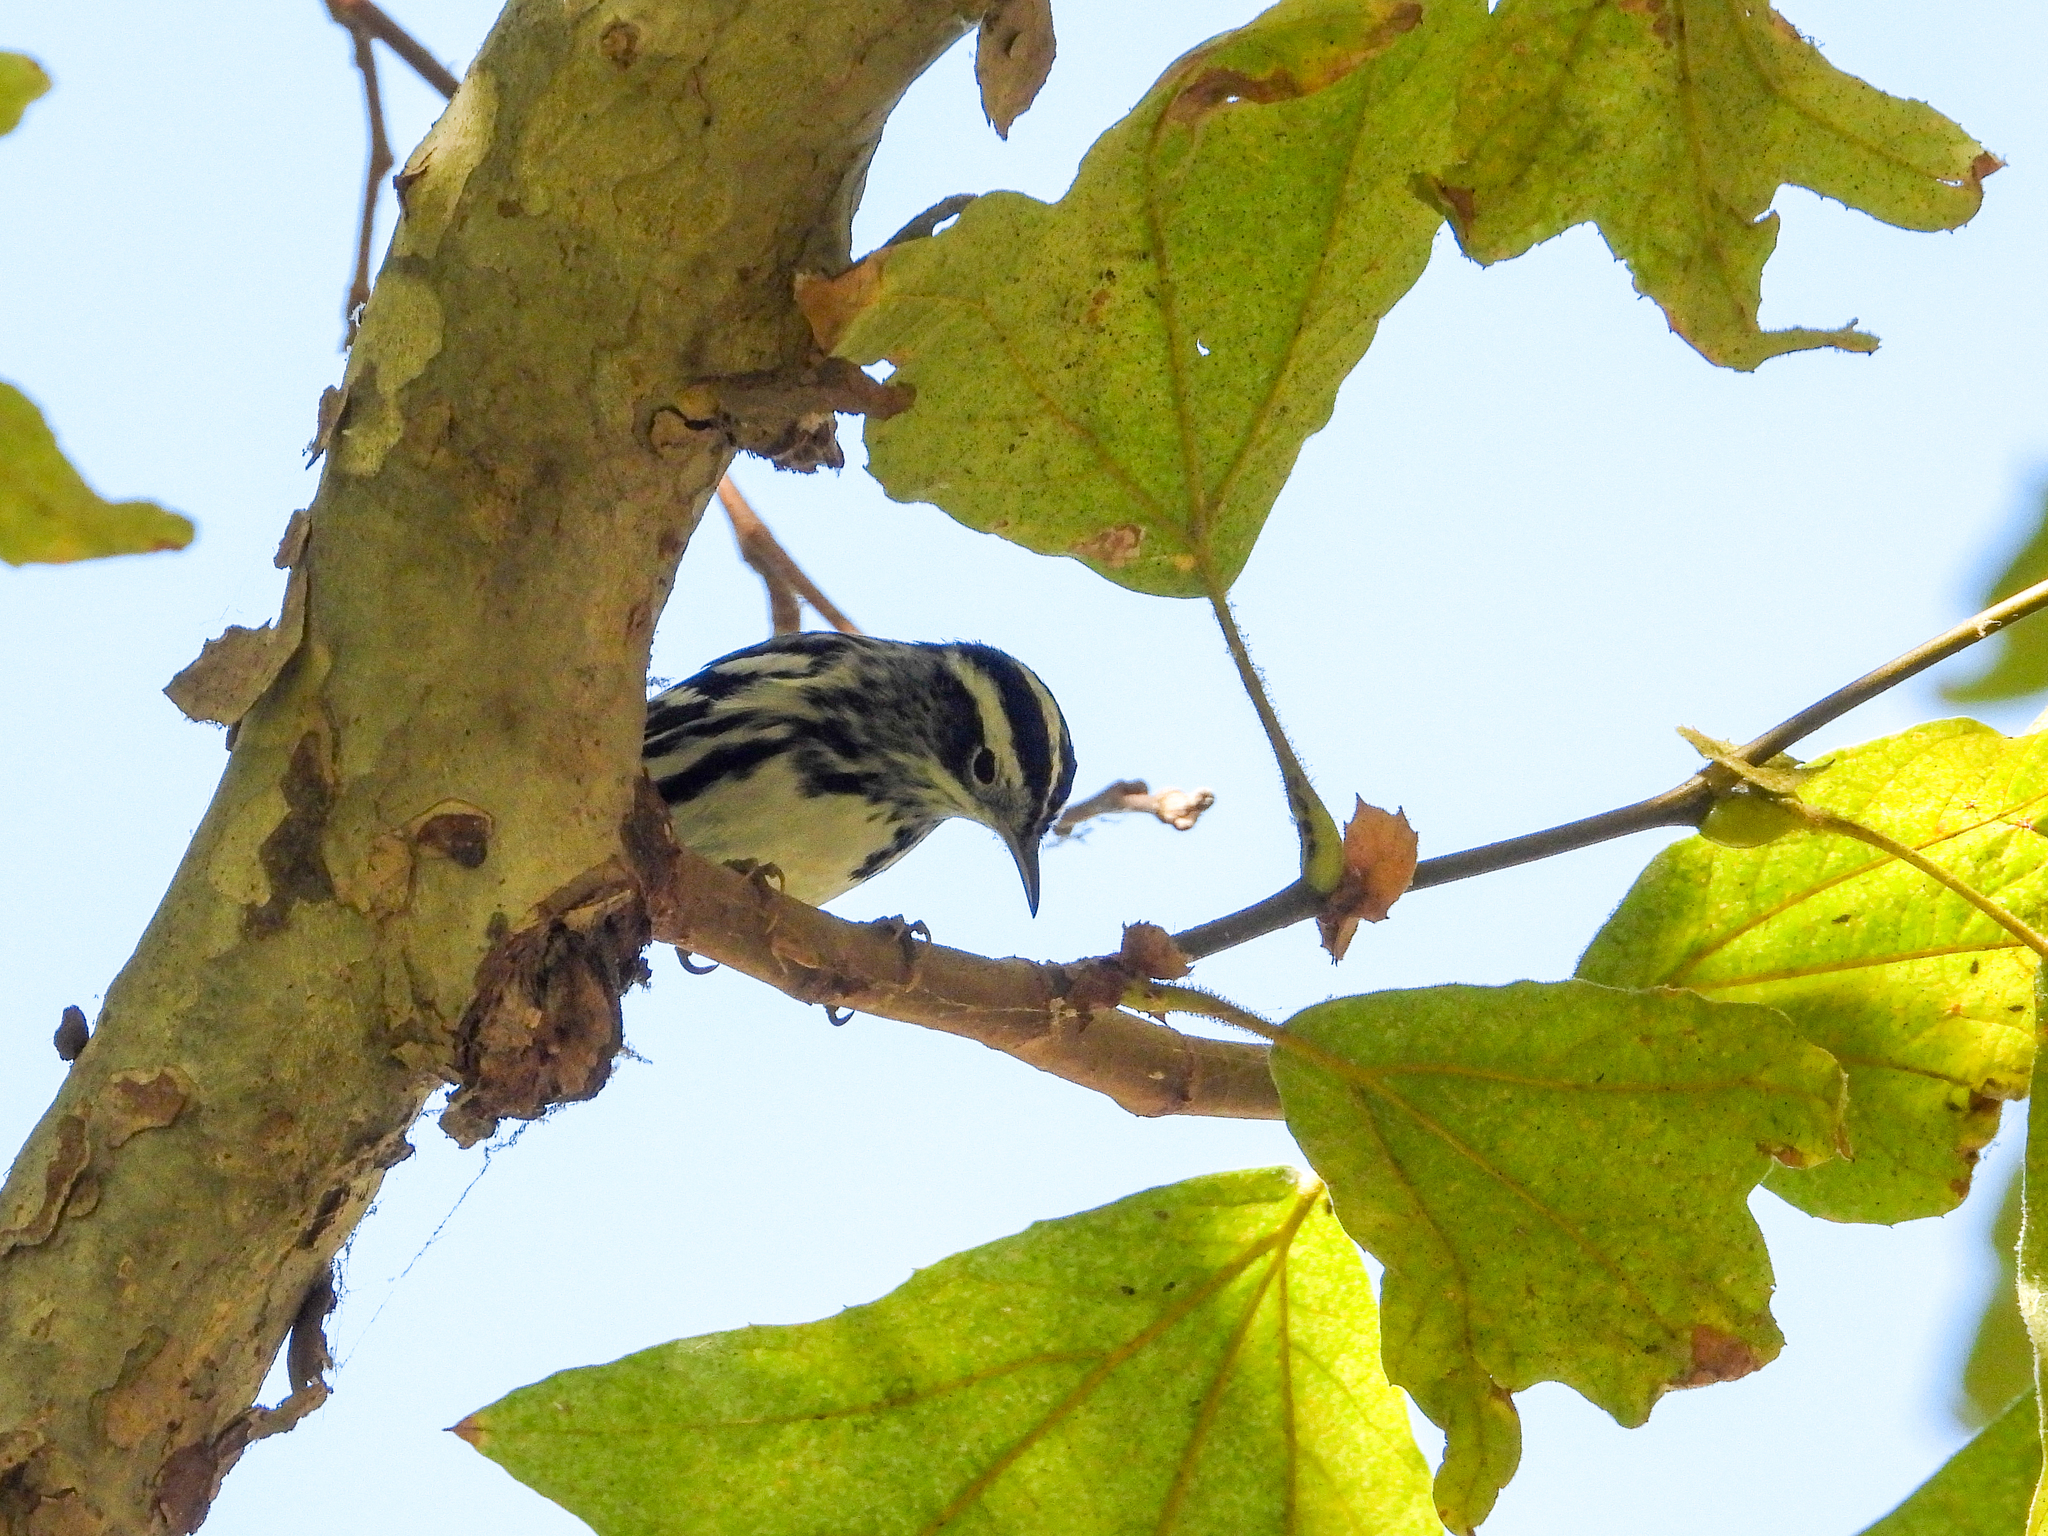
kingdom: Animalia
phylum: Chordata
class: Aves
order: Passeriformes
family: Parulidae
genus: Mniotilta
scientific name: Mniotilta varia
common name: Black-and-white warbler
